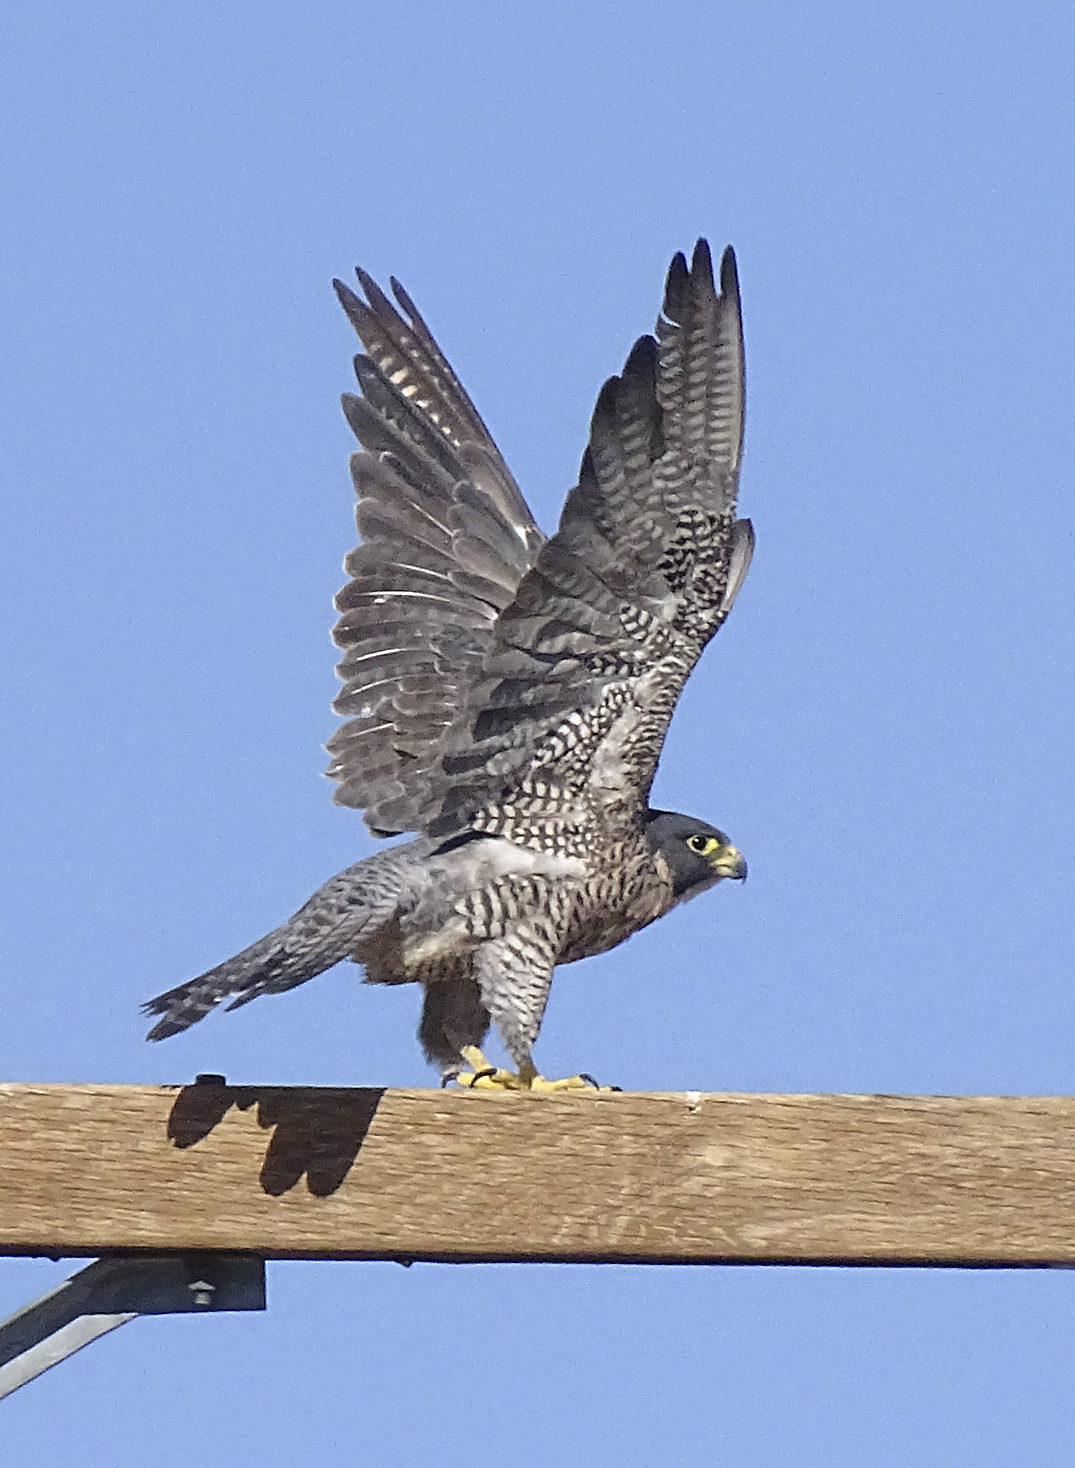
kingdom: Animalia
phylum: Chordata
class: Aves
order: Falconiformes
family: Falconidae
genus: Falco
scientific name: Falco peregrinus
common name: Peregrine falcon
